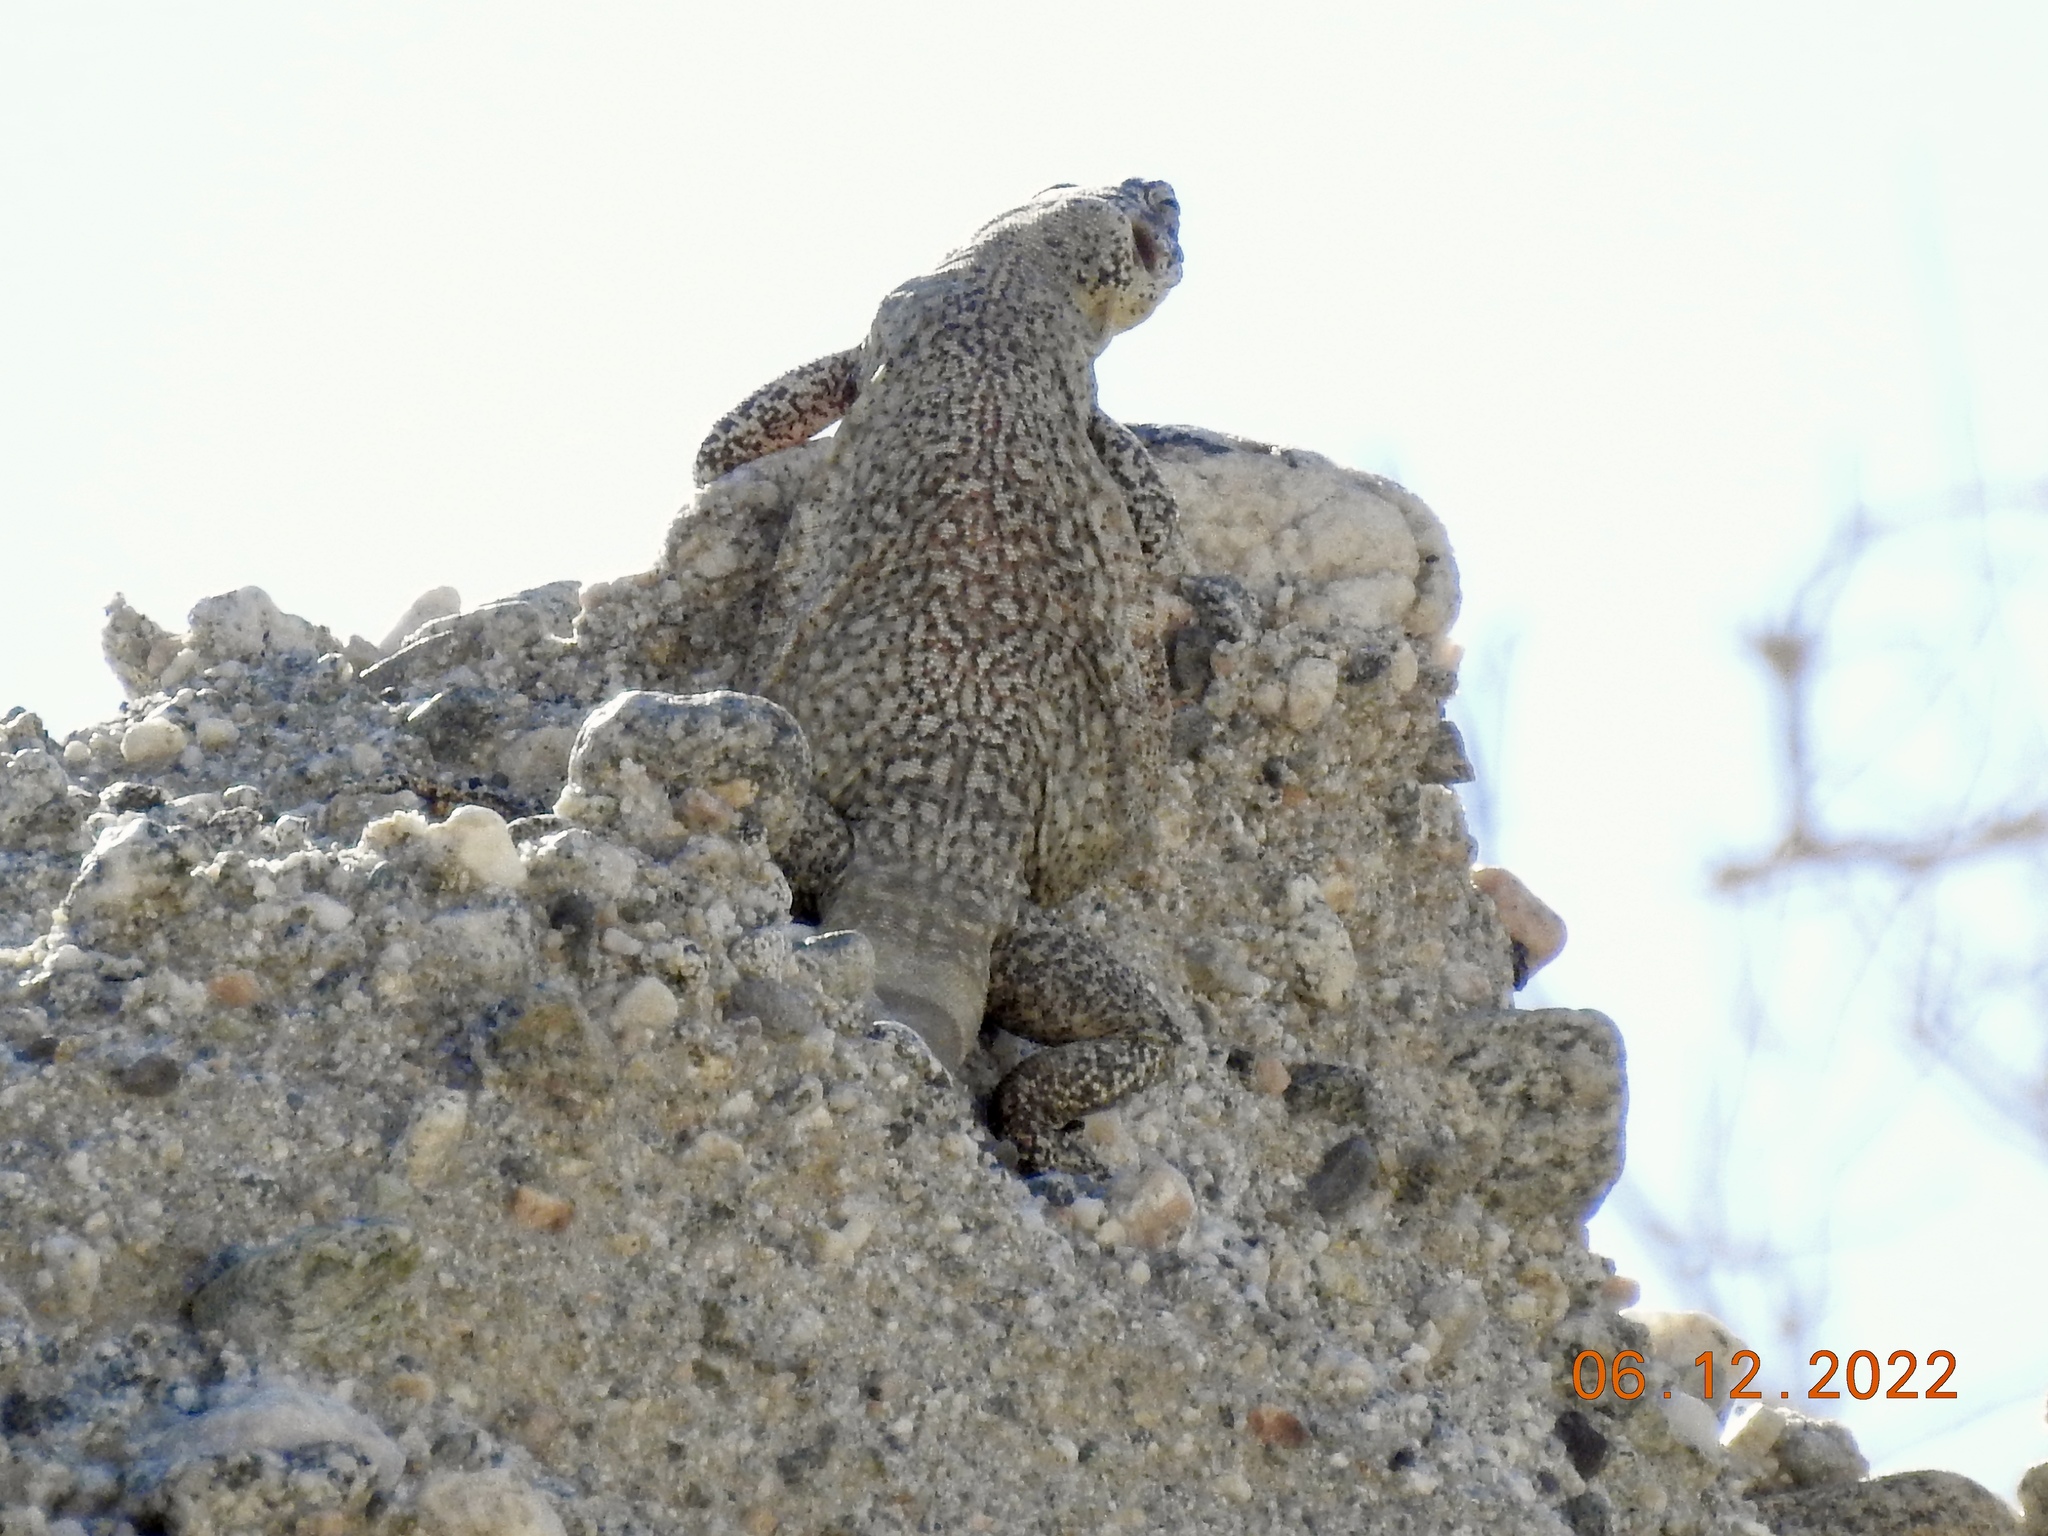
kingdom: Animalia
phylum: Chordata
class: Squamata
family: Iguanidae
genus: Sauromalus
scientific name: Sauromalus ater
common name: Northern chuckwalla
